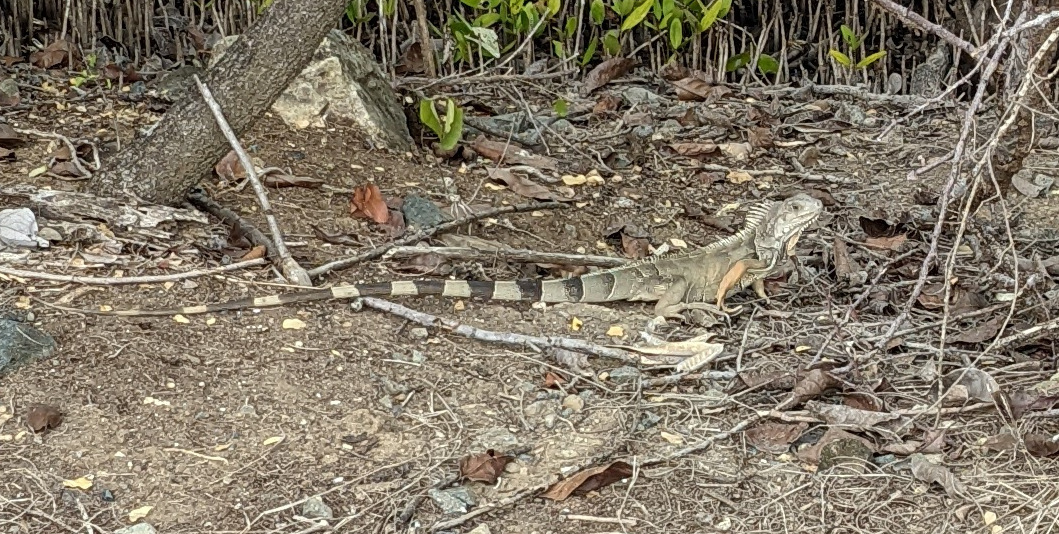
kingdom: Animalia
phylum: Chordata
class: Squamata
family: Iguanidae
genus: Iguana
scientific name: Iguana iguana
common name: Green iguana
